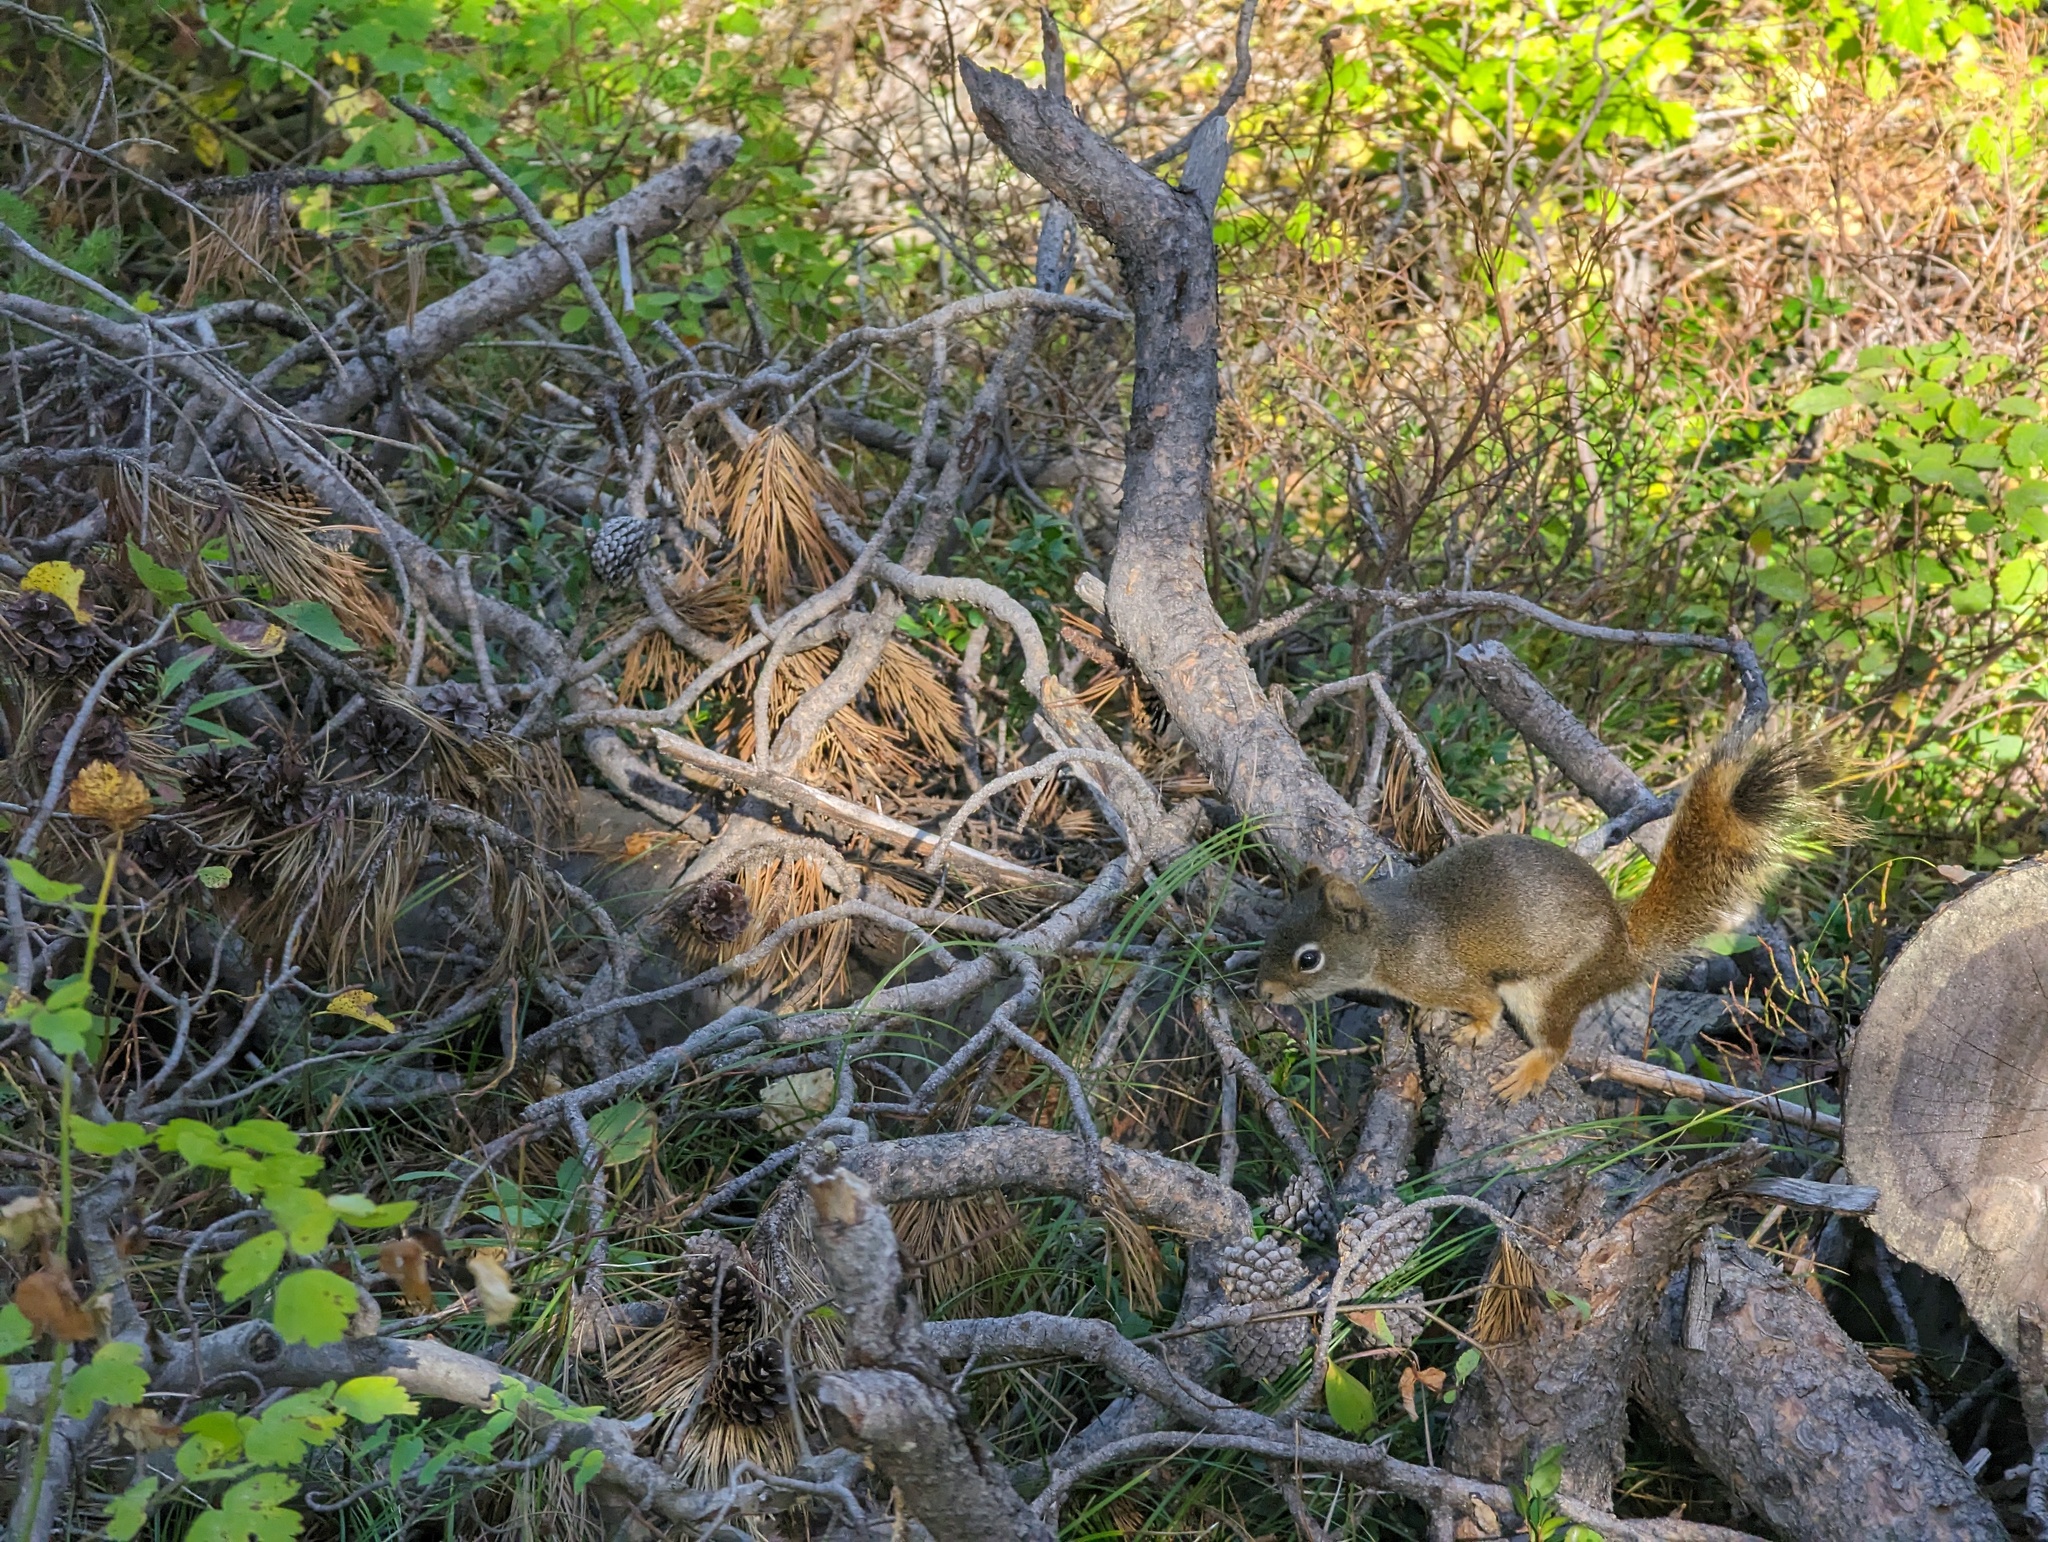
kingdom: Animalia
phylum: Chordata
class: Mammalia
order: Rodentia
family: Sciuridae
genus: Tamiasciurus
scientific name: Tamiasciurus hudsonicus
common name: Red squirrel
